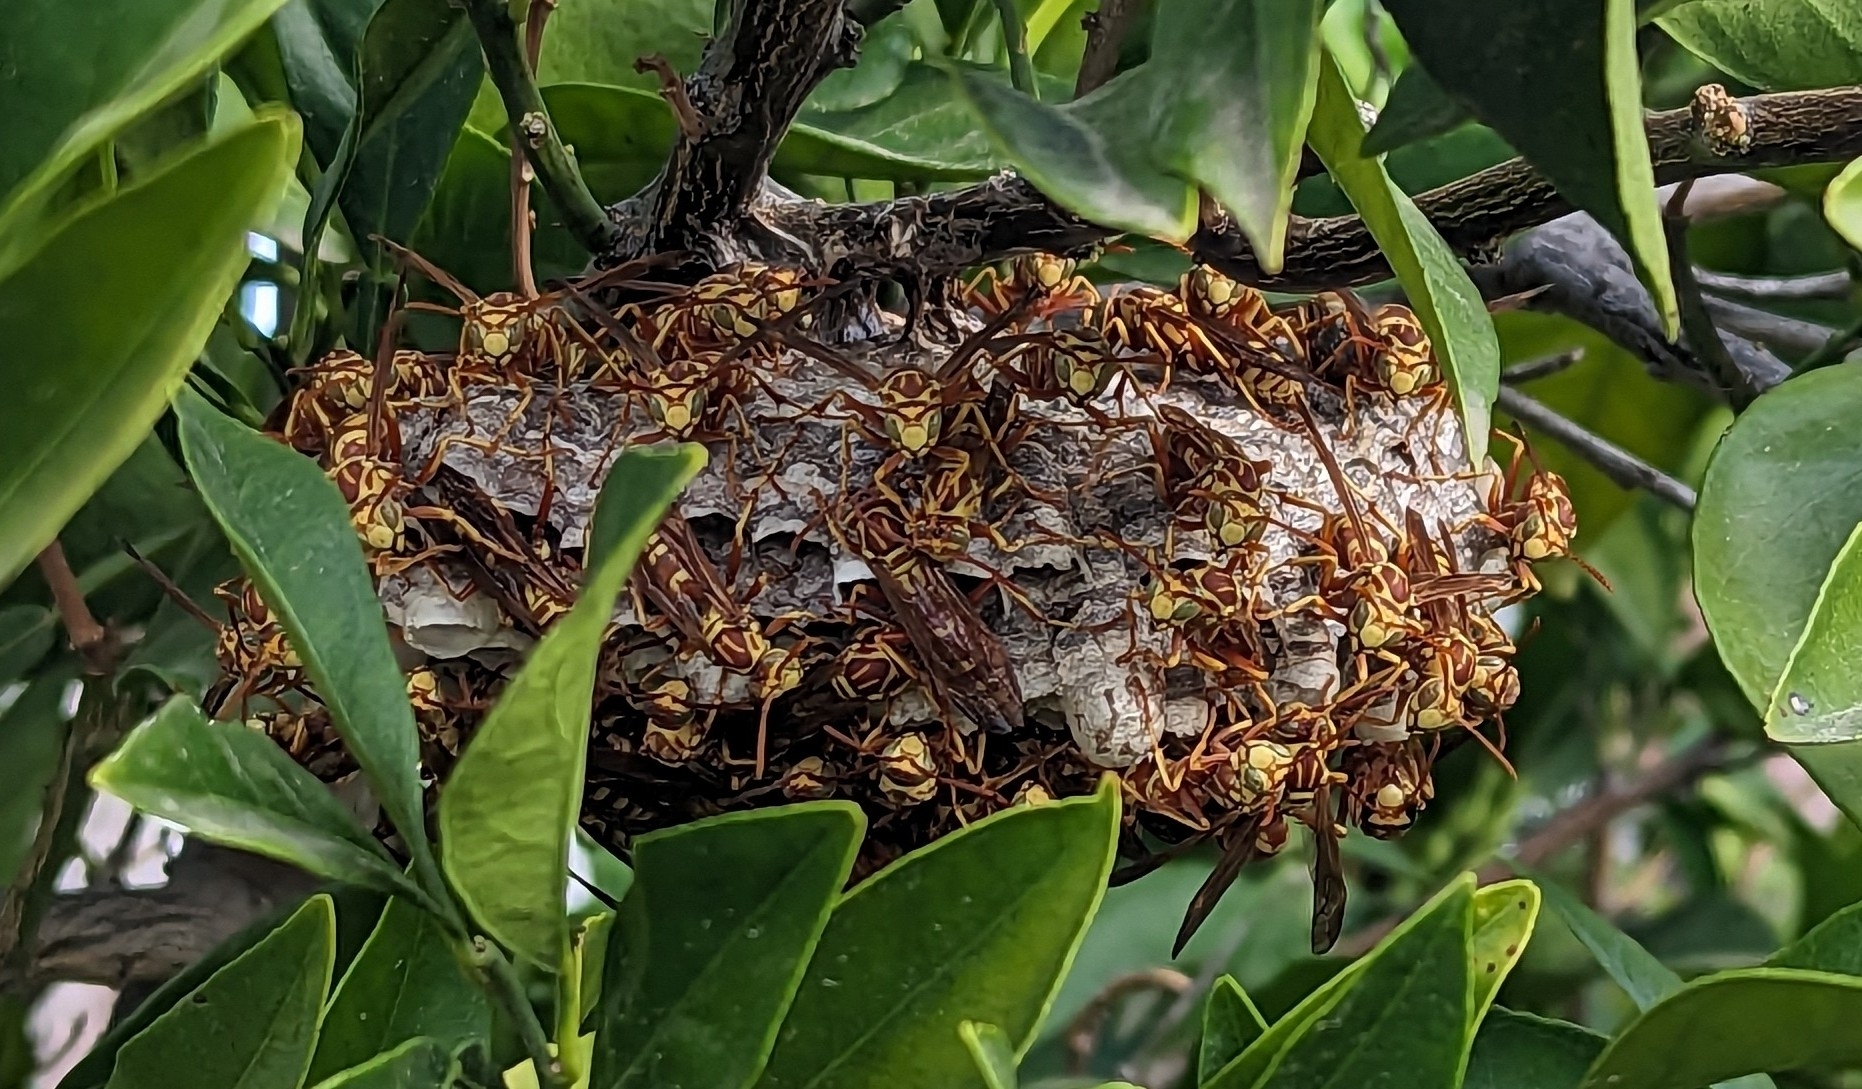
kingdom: Animalia
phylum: Arthropoda
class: Insecta
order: Hymenoptera
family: Eumenidae
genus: Polistes
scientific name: Polistes apachus
